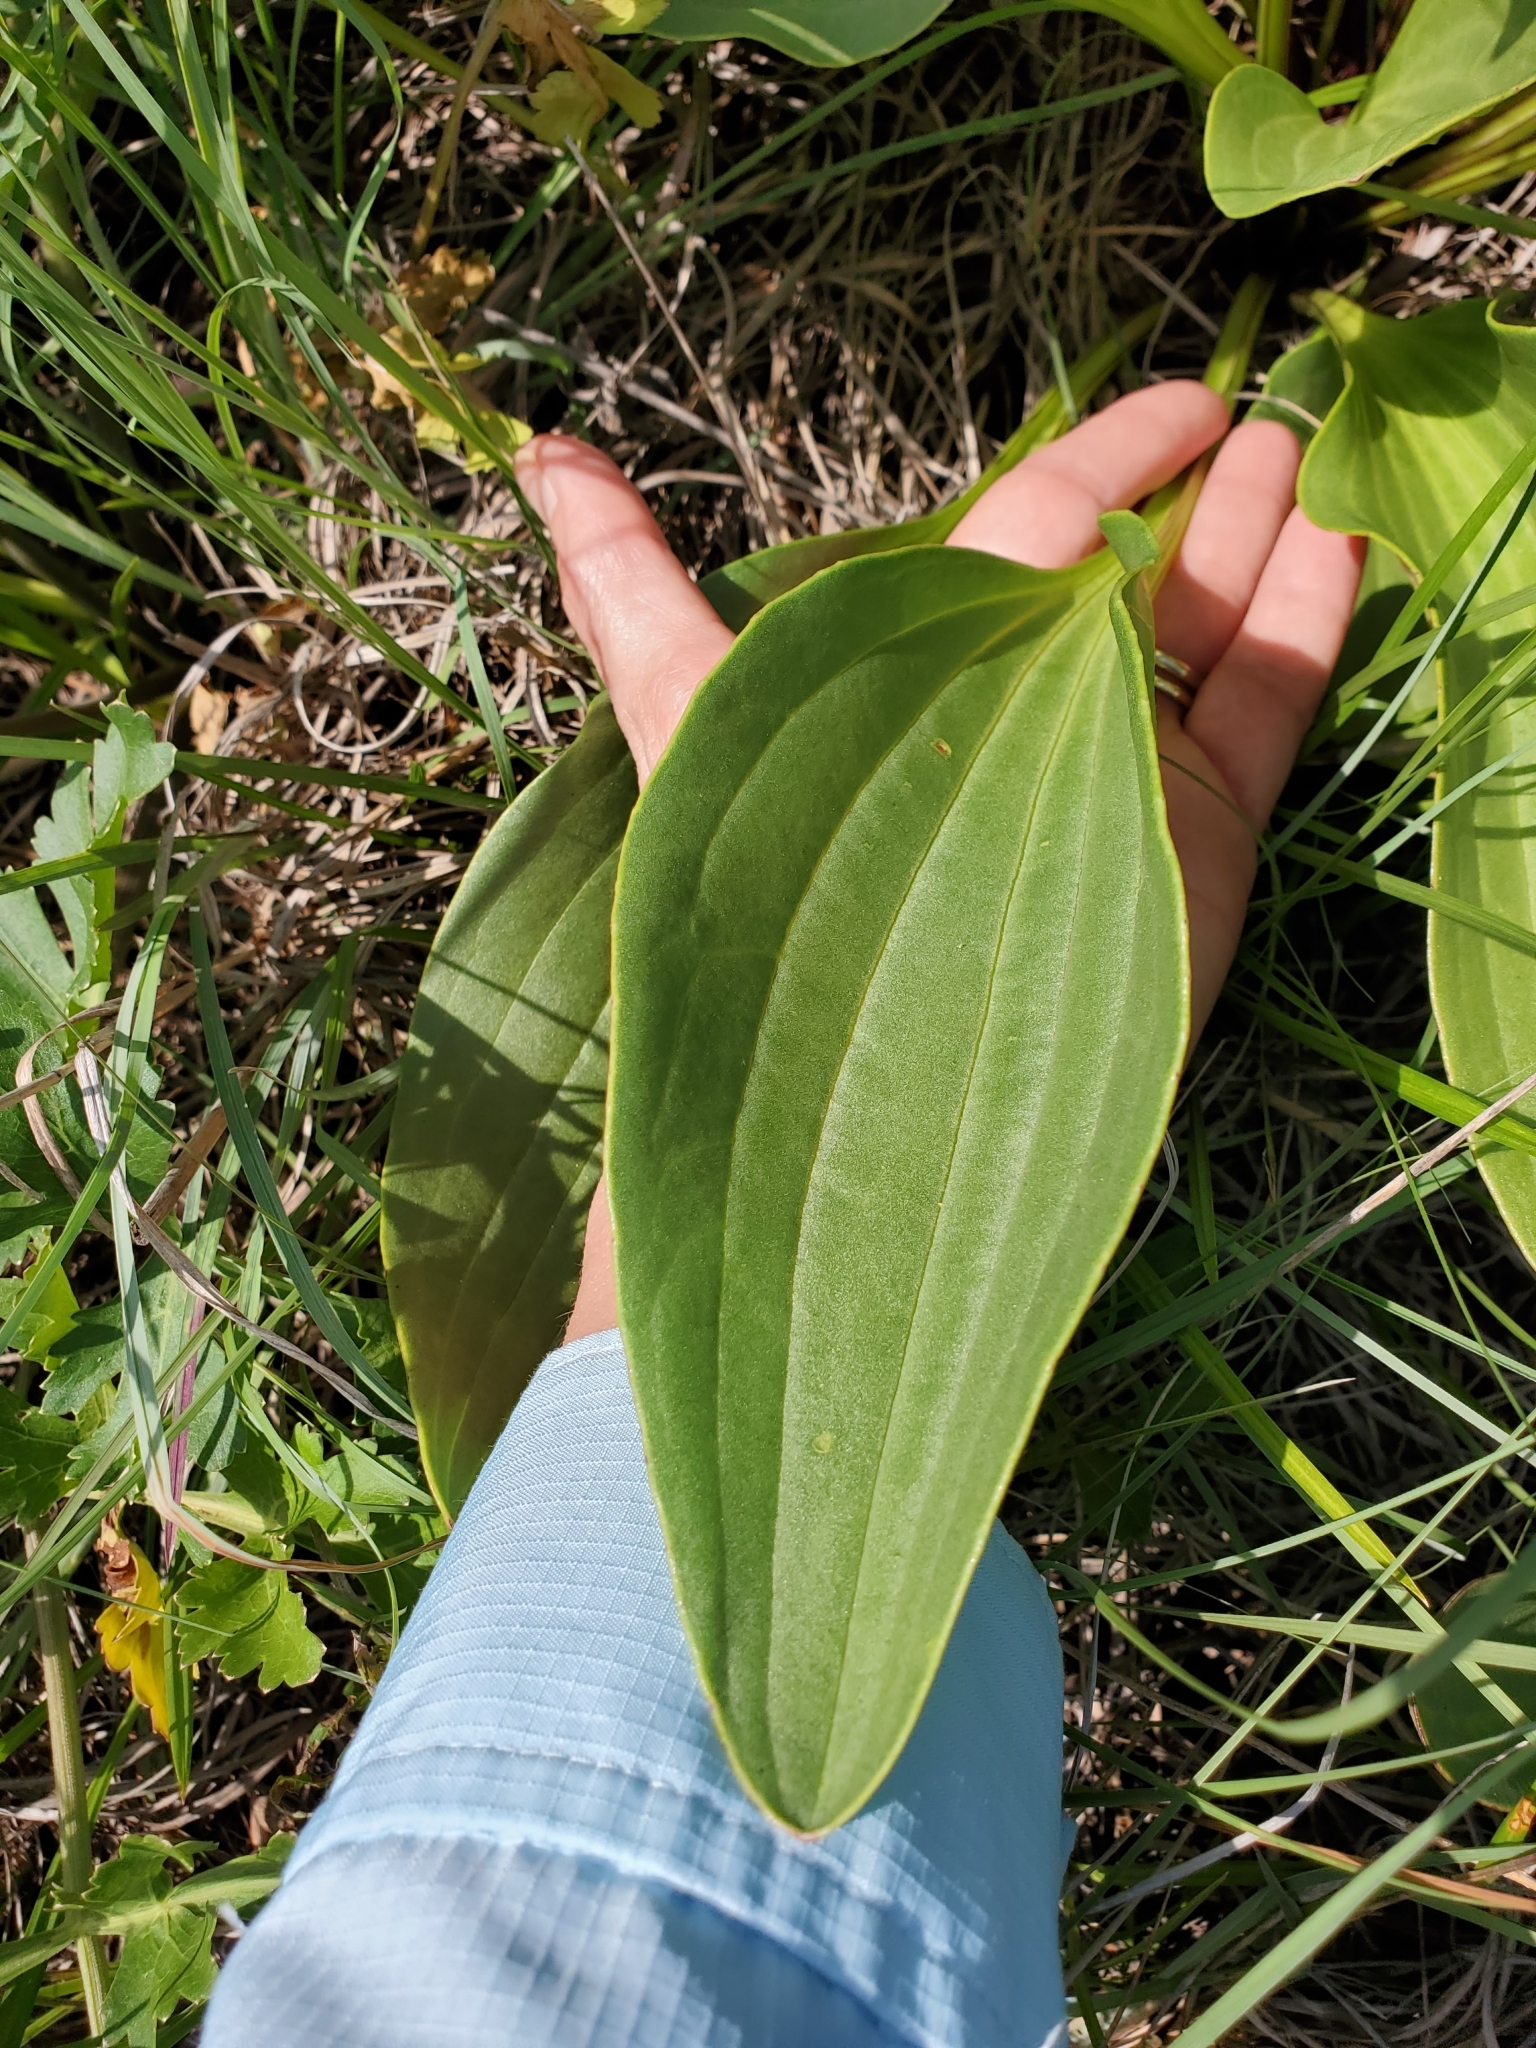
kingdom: Plantae
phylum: Tracheophyta
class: Magnoliopsida
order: Asterales
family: Asteraceae
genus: Arnoglossum
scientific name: Arnoglossum plantagineum
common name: Groove-stemmed indian-plantain
